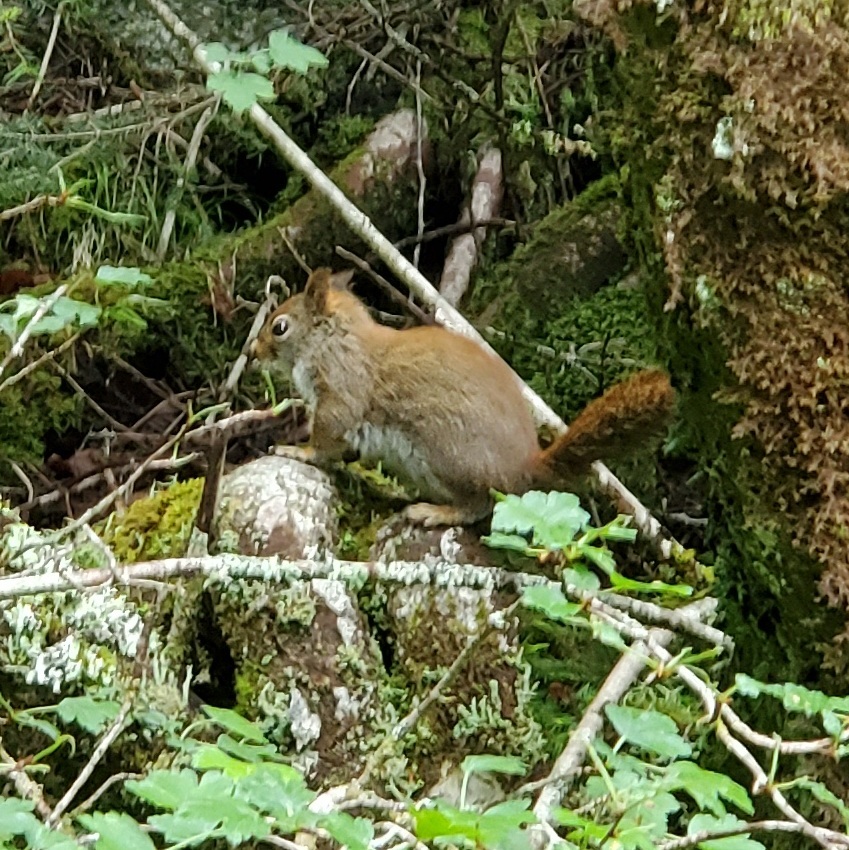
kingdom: Animalia
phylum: Chordata
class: Mammalia
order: Rodentia
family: Sciuridae
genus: Tamiasciurus
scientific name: Tamiasciurus hudsonicus
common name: Red squirrel
